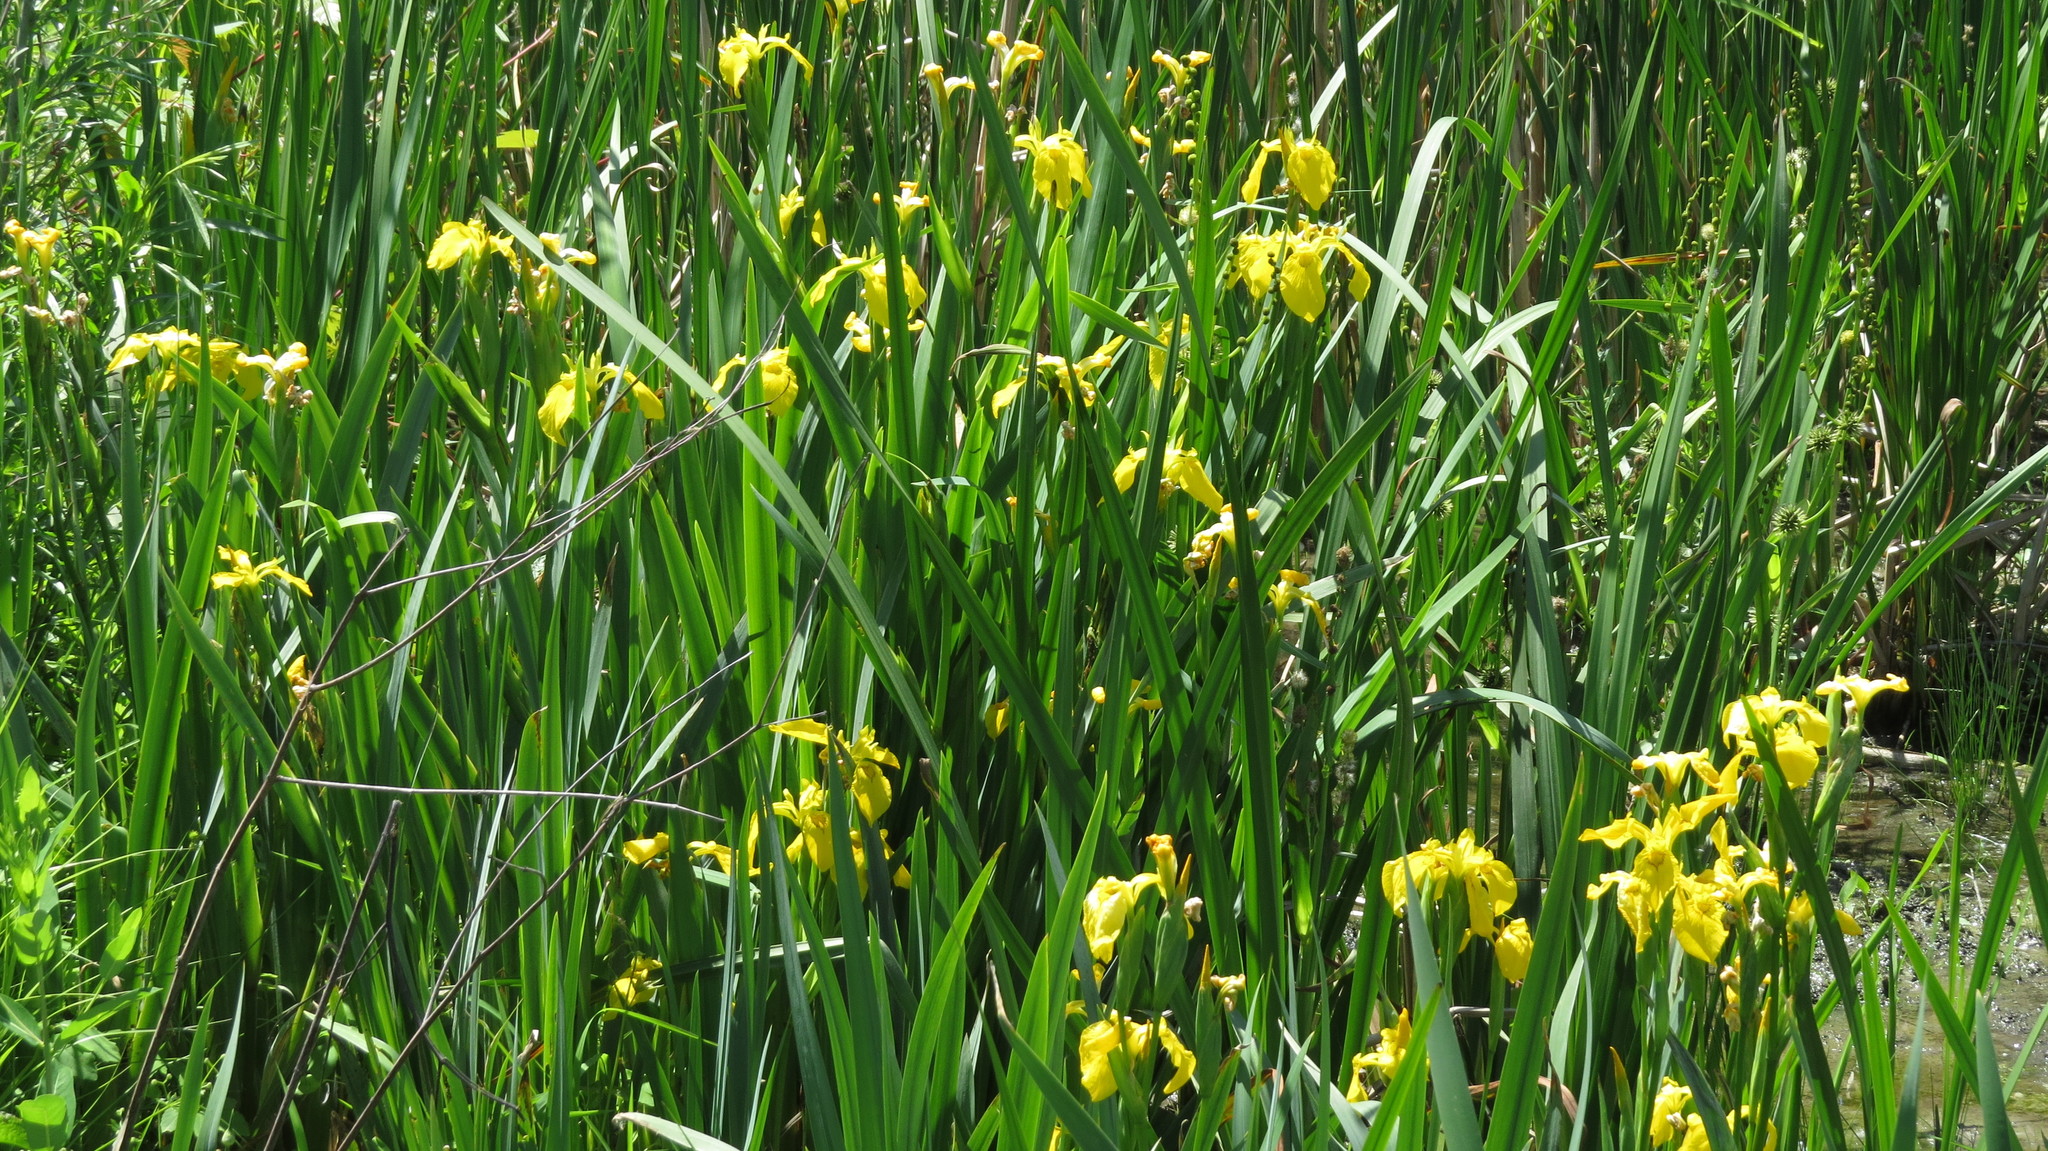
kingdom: Plantae
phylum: Tracheophyta
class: Liliopsida
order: Asparagales
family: Iridaceae
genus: Iris
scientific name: Iris pseudacorus
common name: Yellow flag
